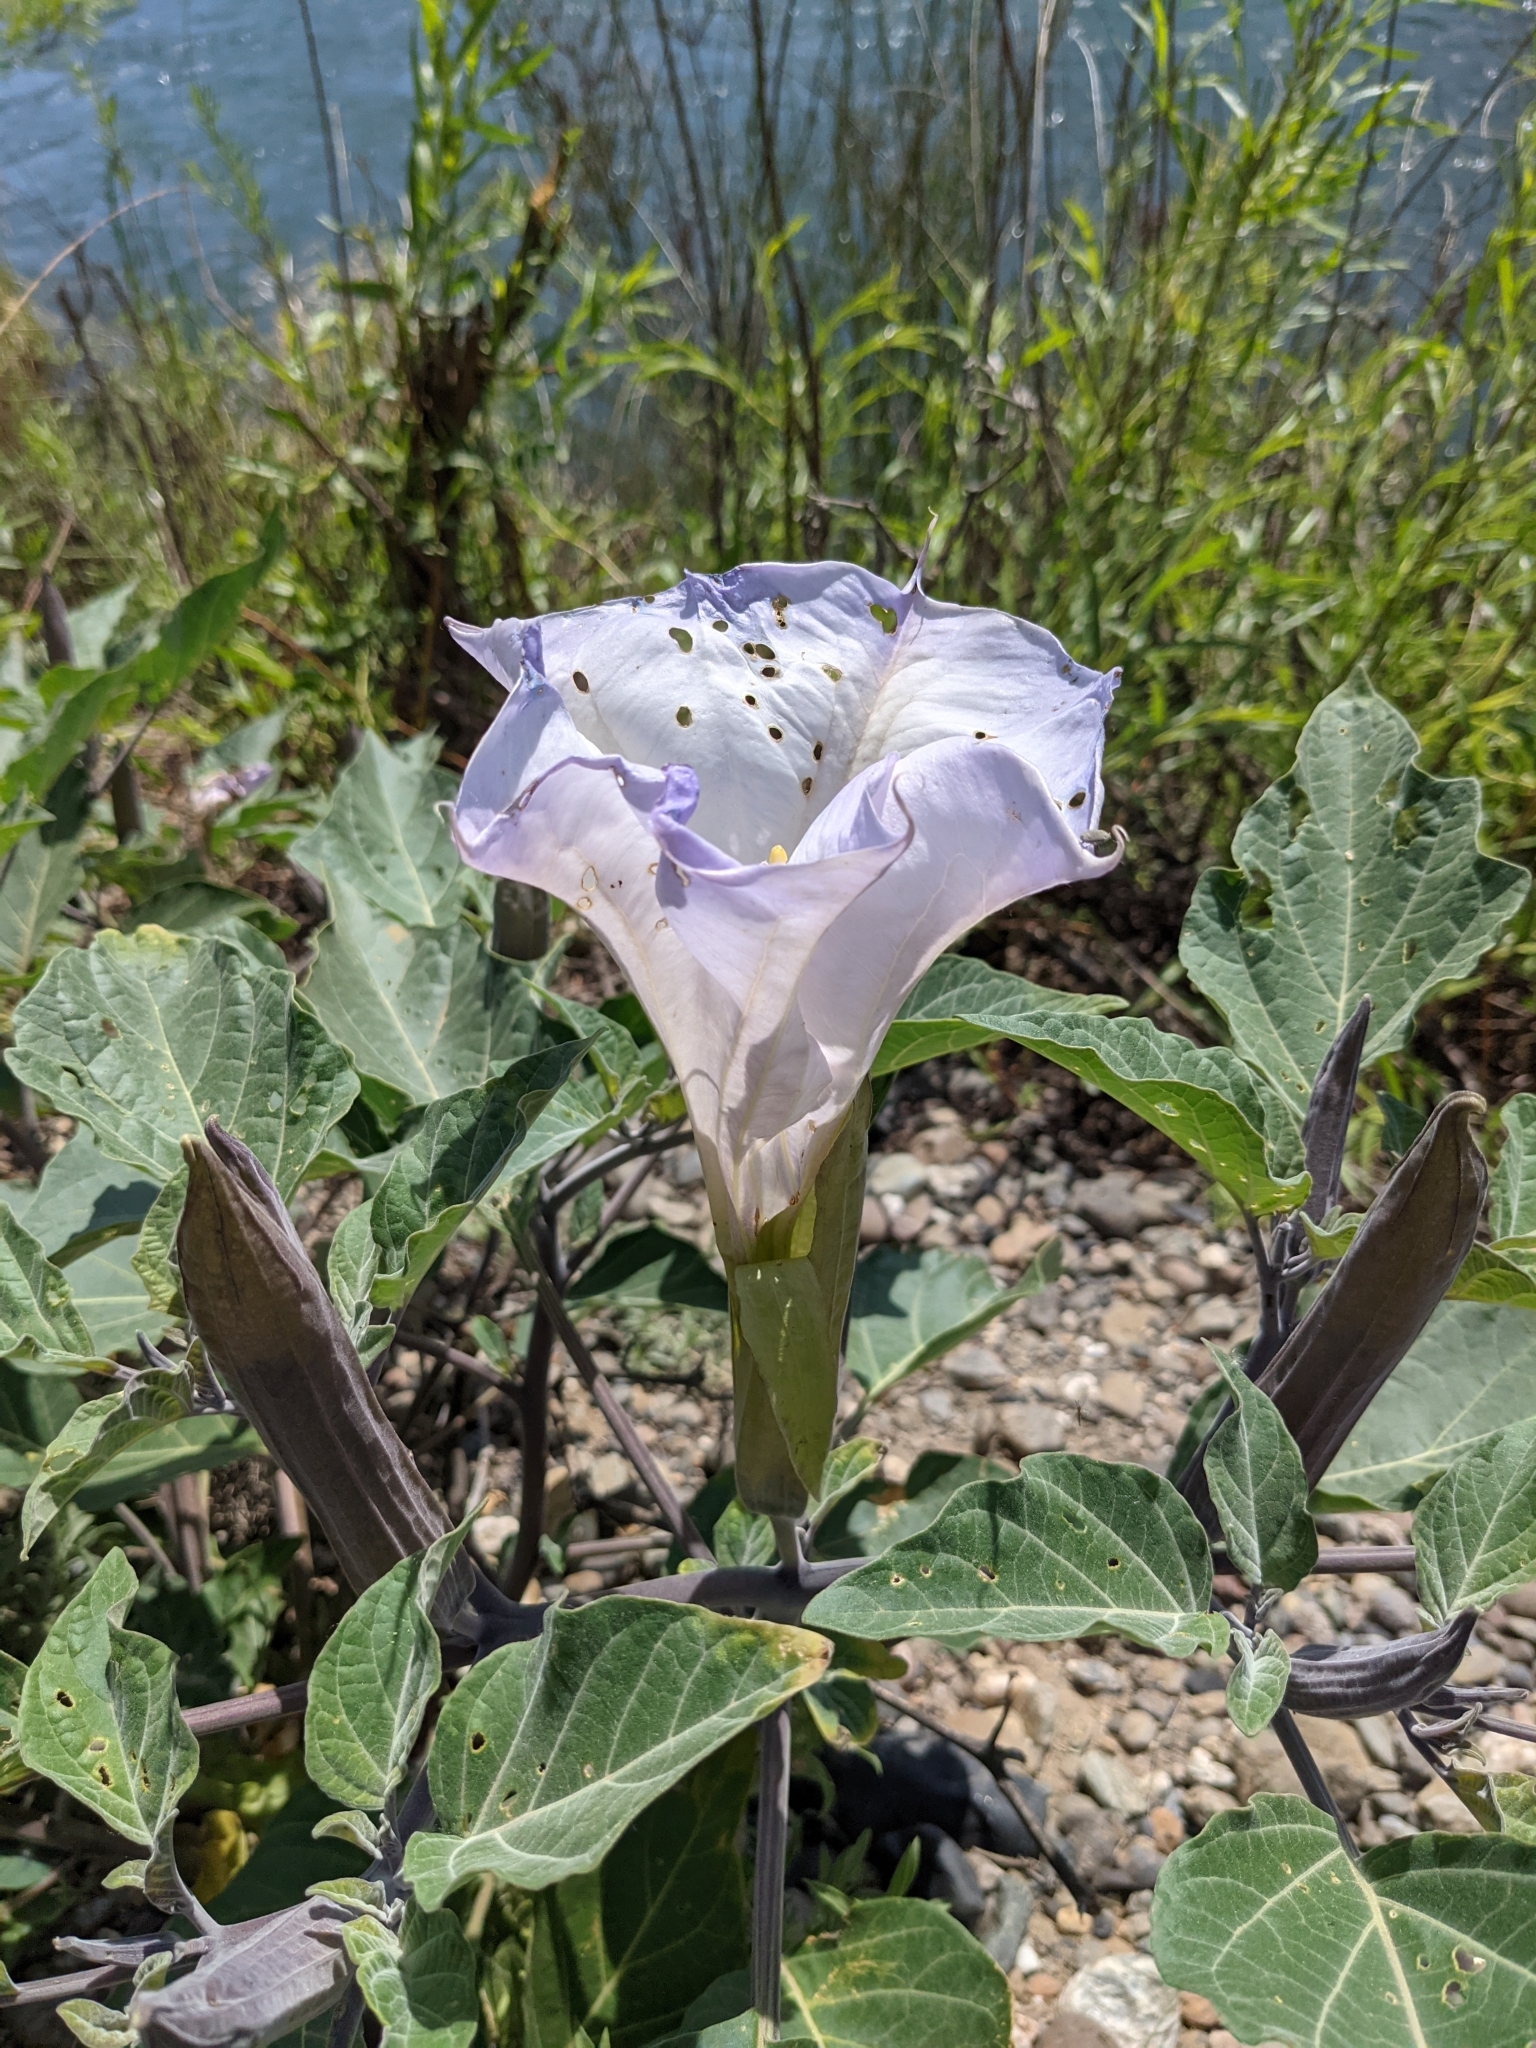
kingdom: Plantae
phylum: Tracheophyta
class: Magnoliopsida
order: Solanales
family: Solanaceae
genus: Datura
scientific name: Datura wrightii
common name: Sacred thorn-apple
